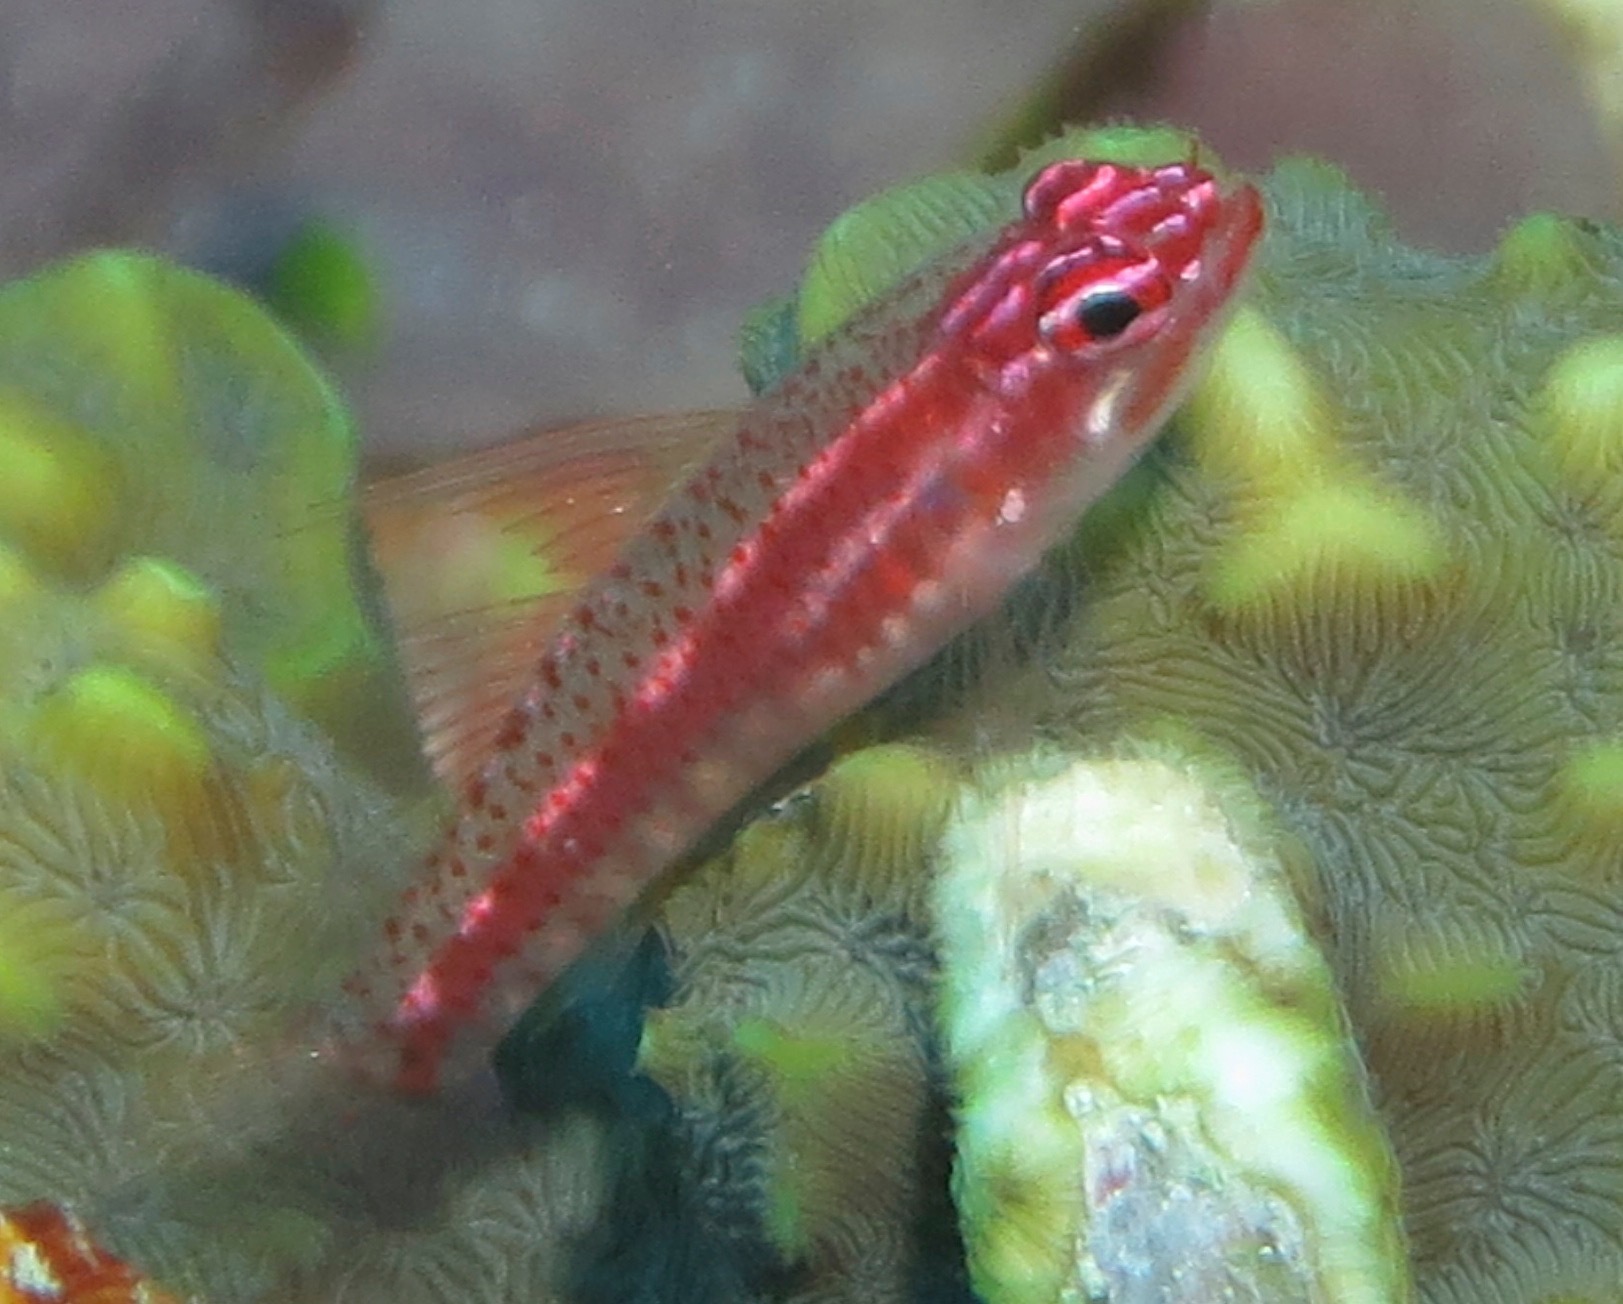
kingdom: Animalia
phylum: Chordata
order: Perciformes
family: Gobiidae
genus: Eviota
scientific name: Eviota prasites
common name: Hairfin eviota
